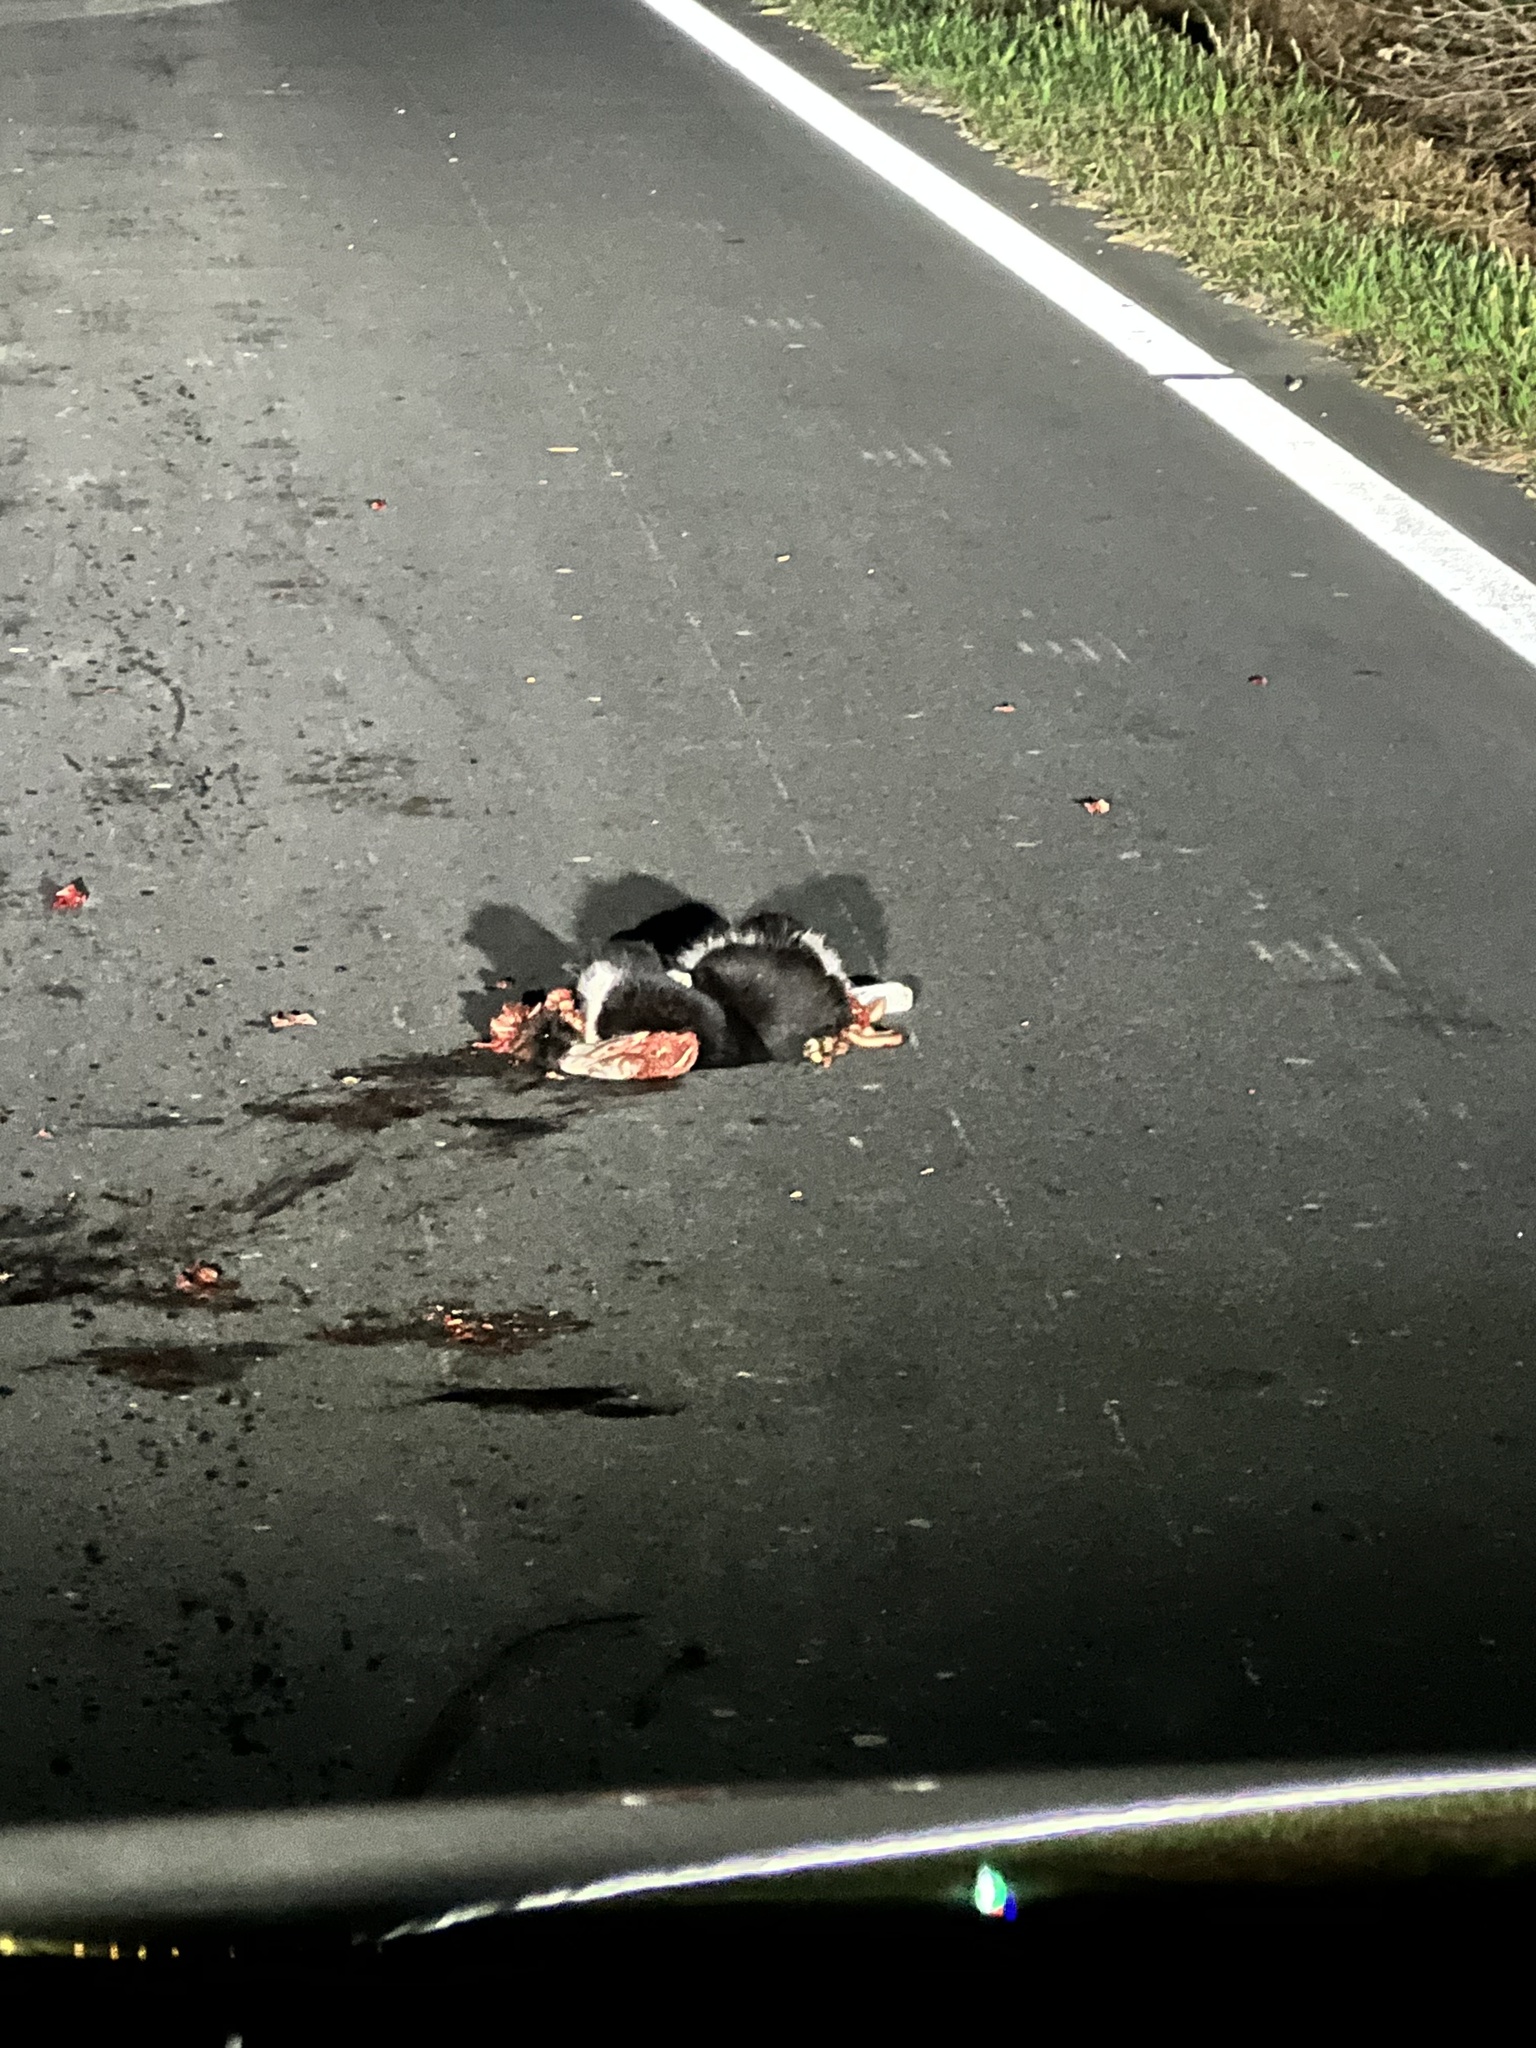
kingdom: Animalia
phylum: Chordata
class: Mammalia
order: Carnivora
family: Felidae
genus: Felis
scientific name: Felis catus
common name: Domestic cat
